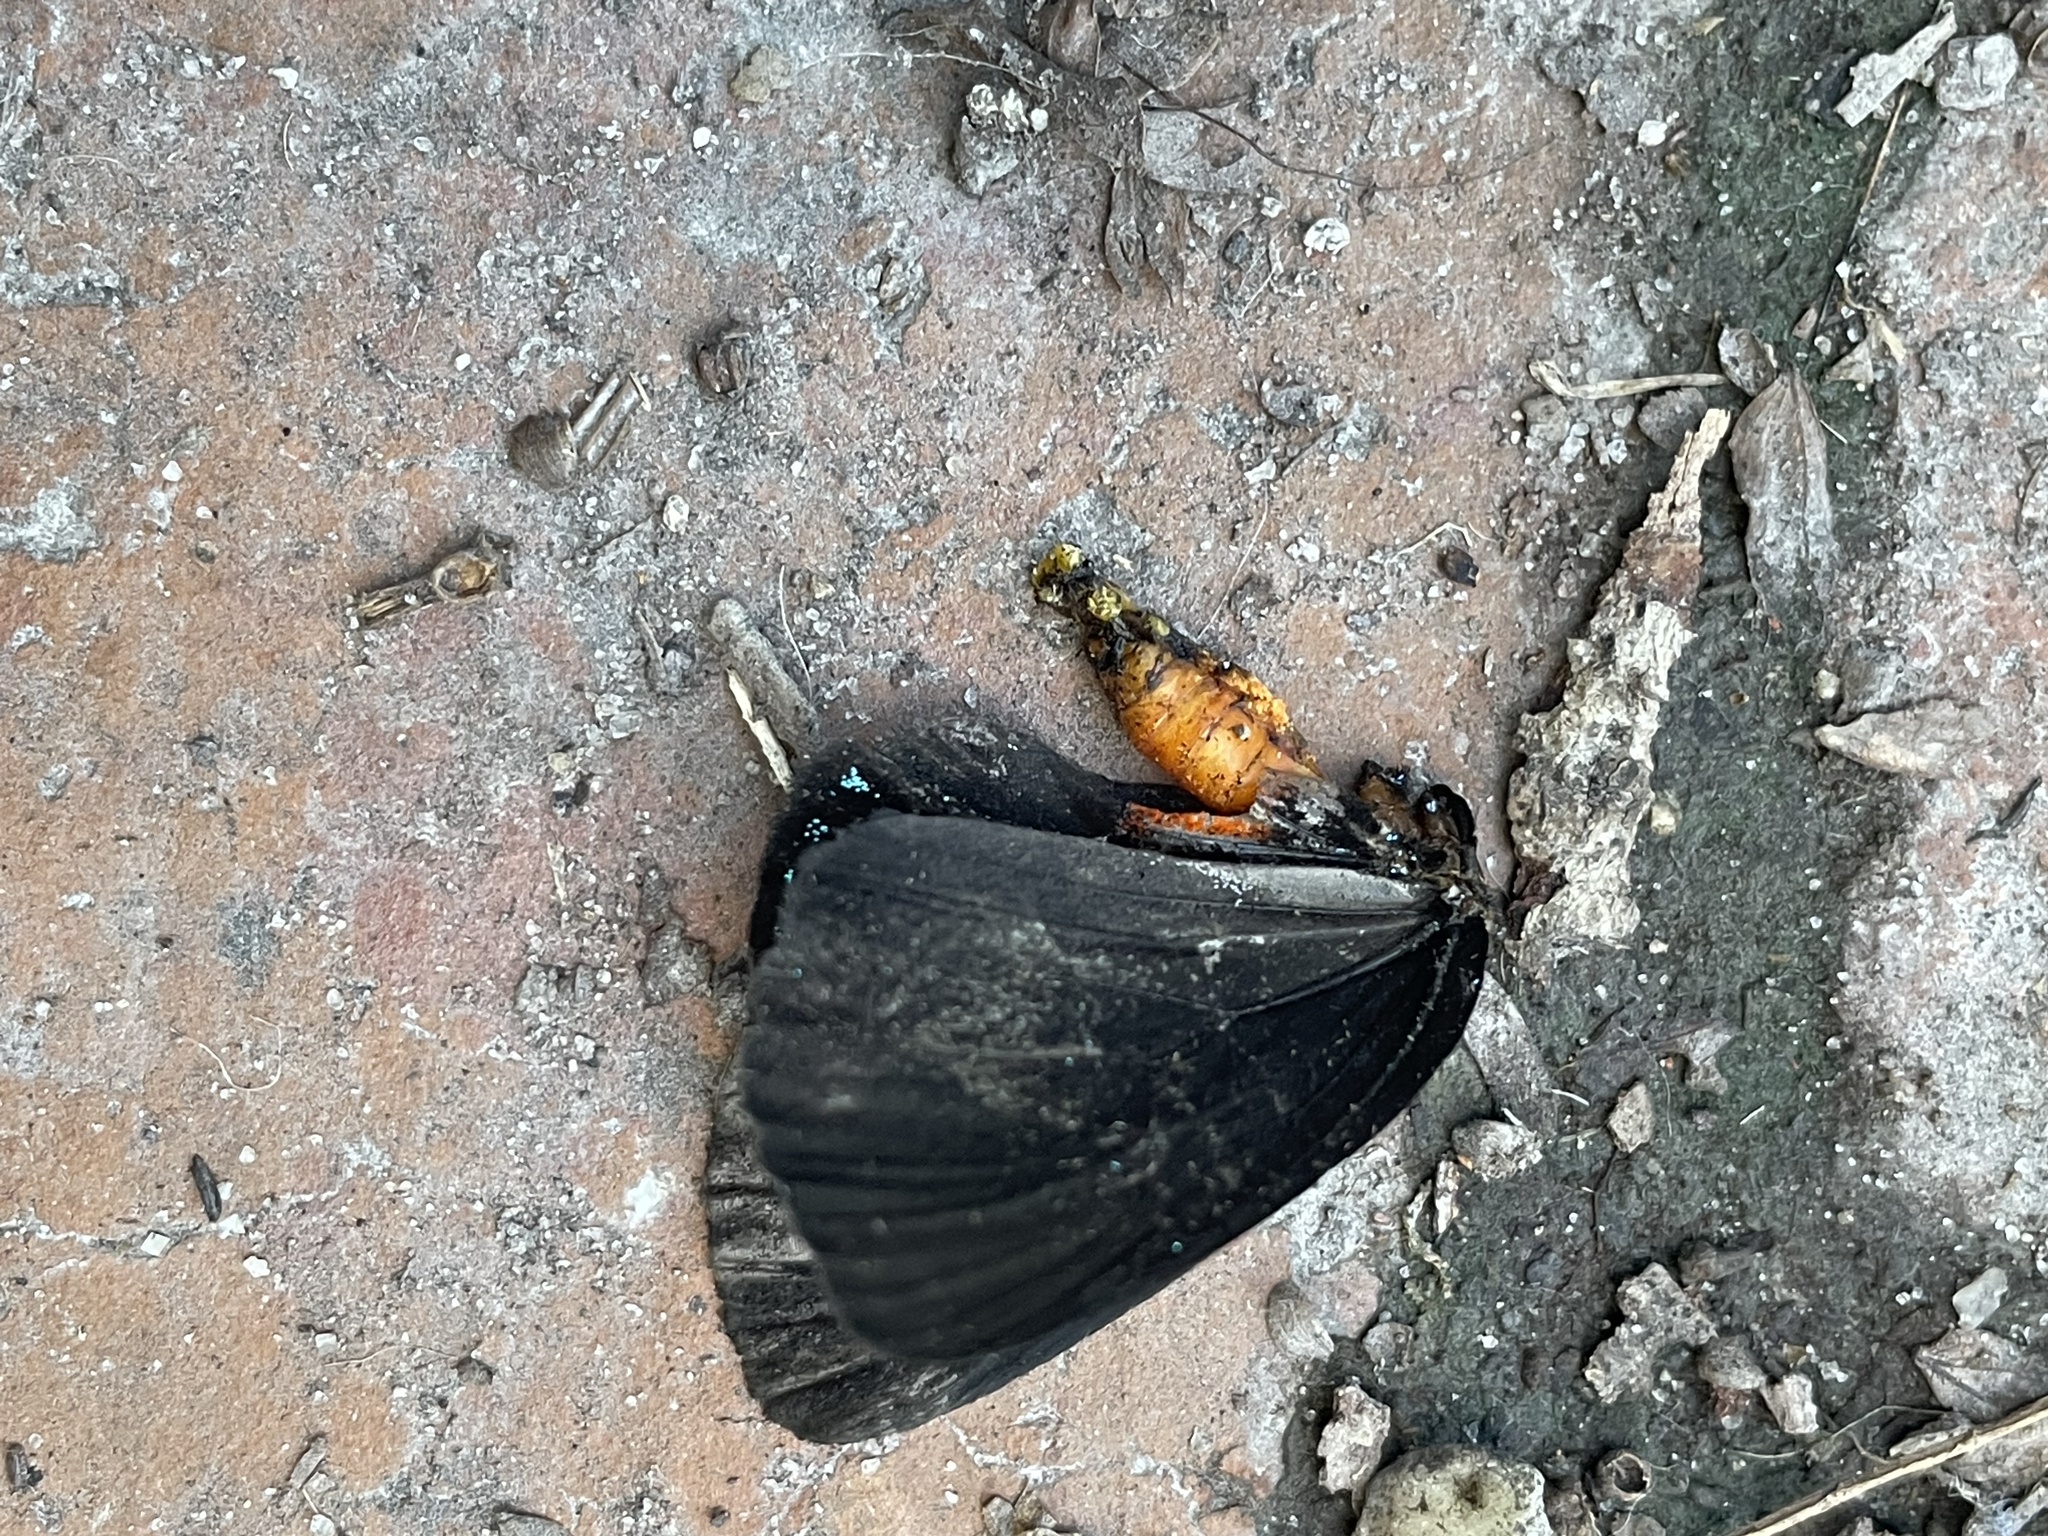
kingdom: Animalia
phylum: Arthropoda
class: Insecta
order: Lepidoptera
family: Lycaenidae
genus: Eumaeus
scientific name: Eumaeus atala
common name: Atala
